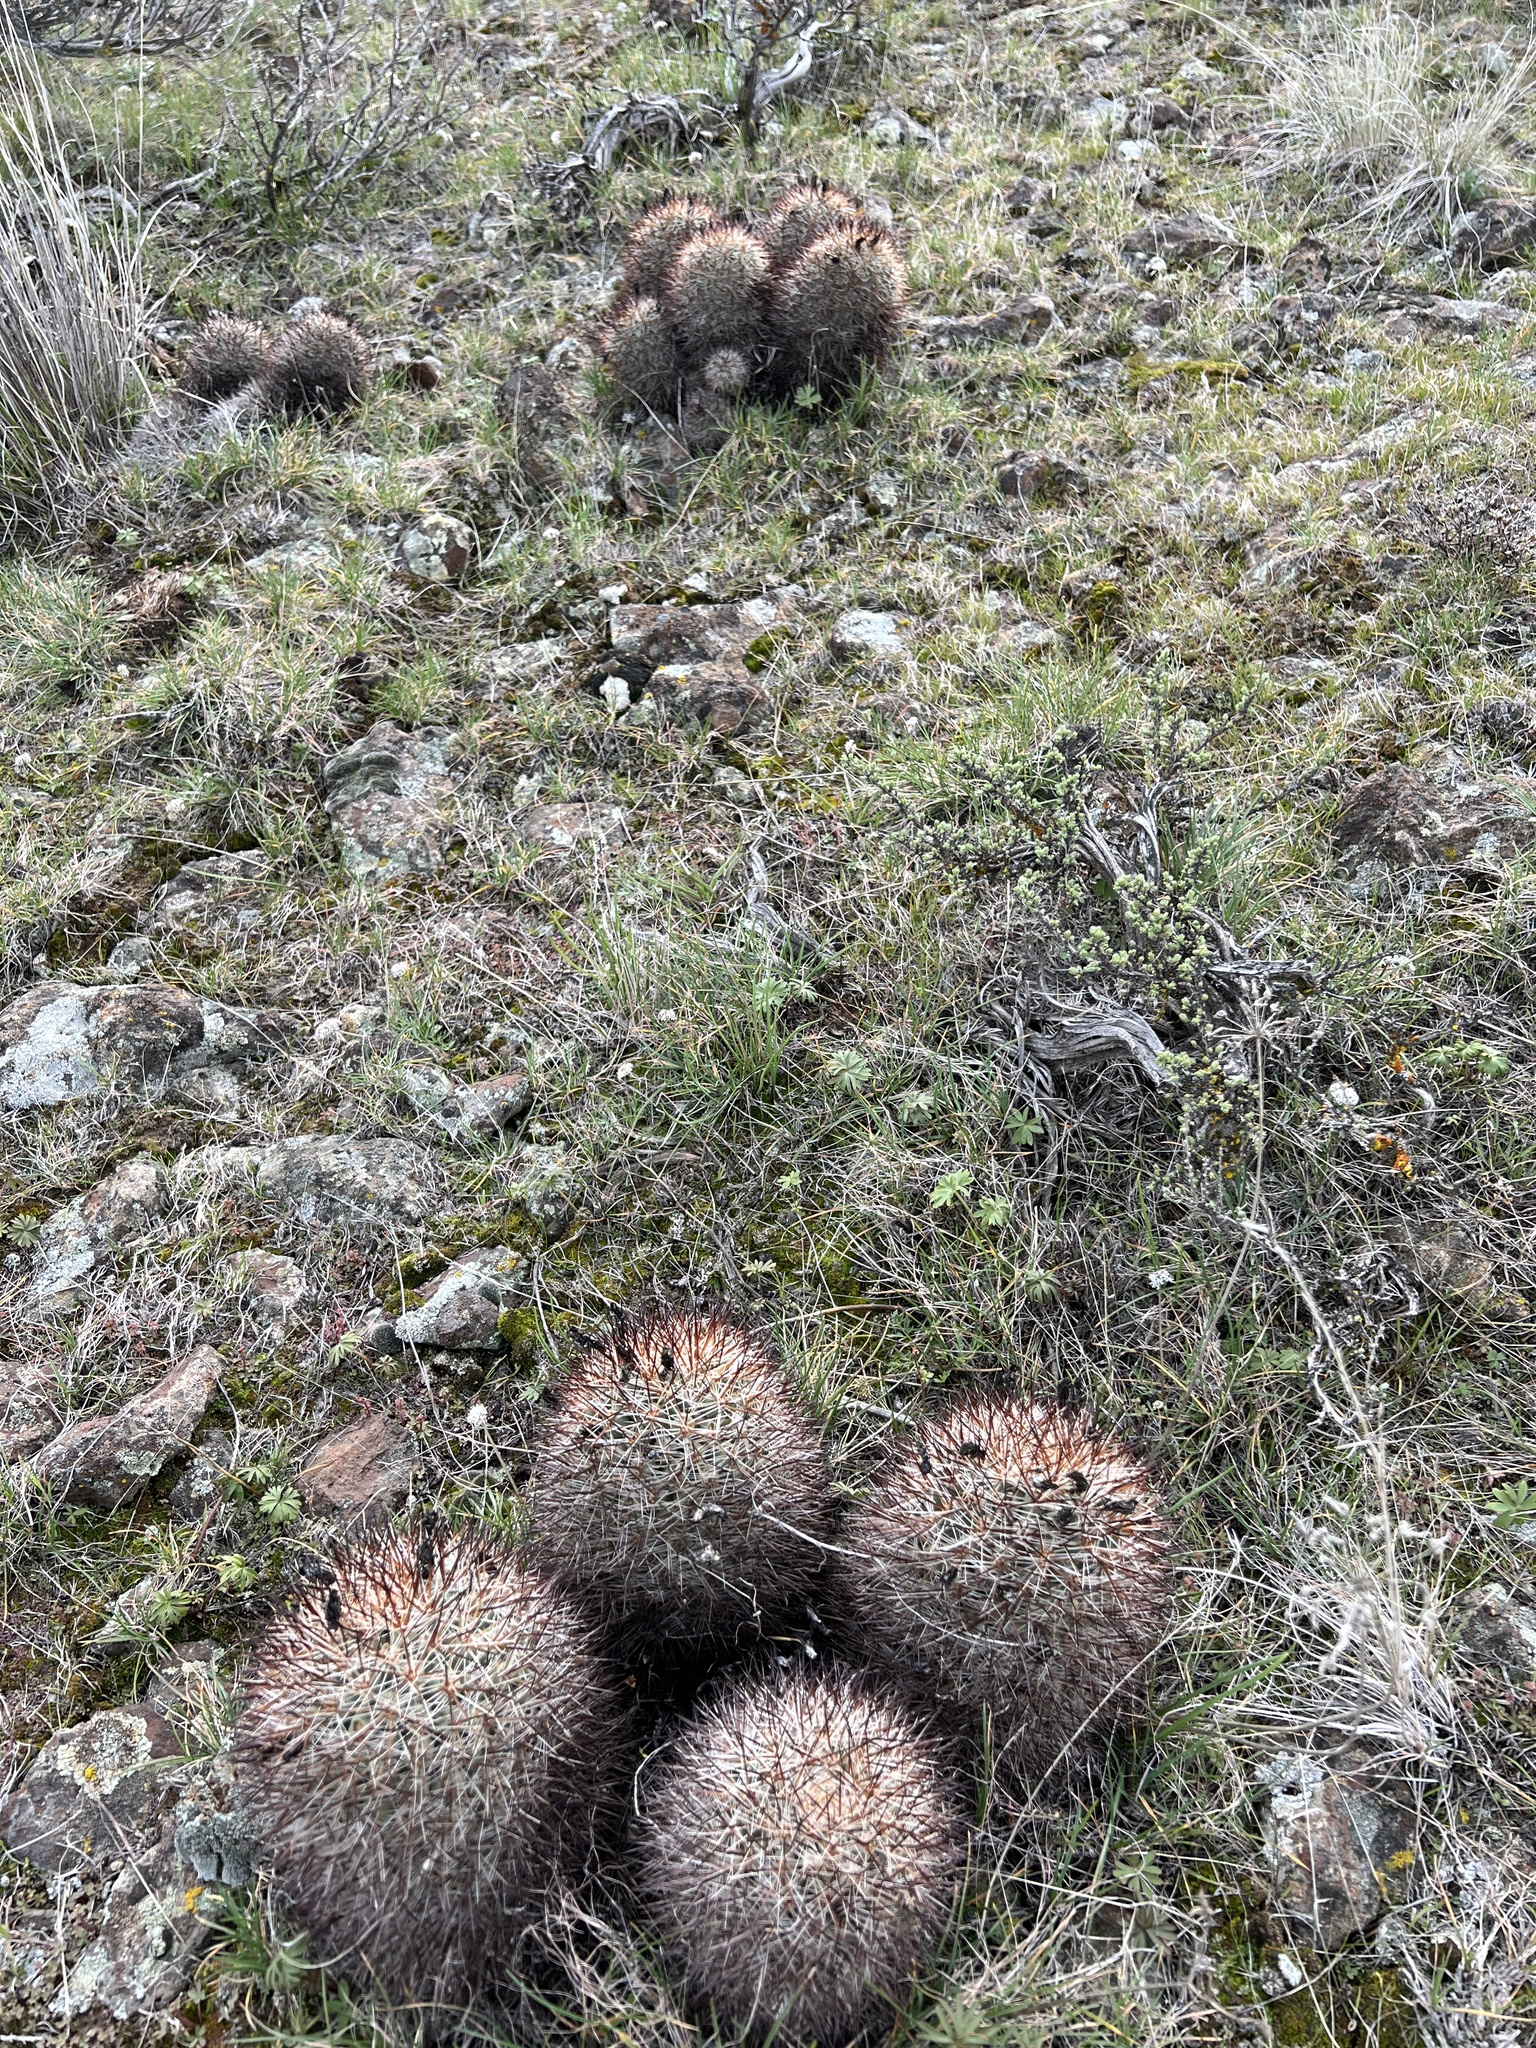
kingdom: Plantae
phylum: Tracheophyta
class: Magnoliopsida
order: Caryophyllales
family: Cactaceae
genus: Pediocactus
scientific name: Pediocactus nigrispinus
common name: Simpson's hedgehog cactus
